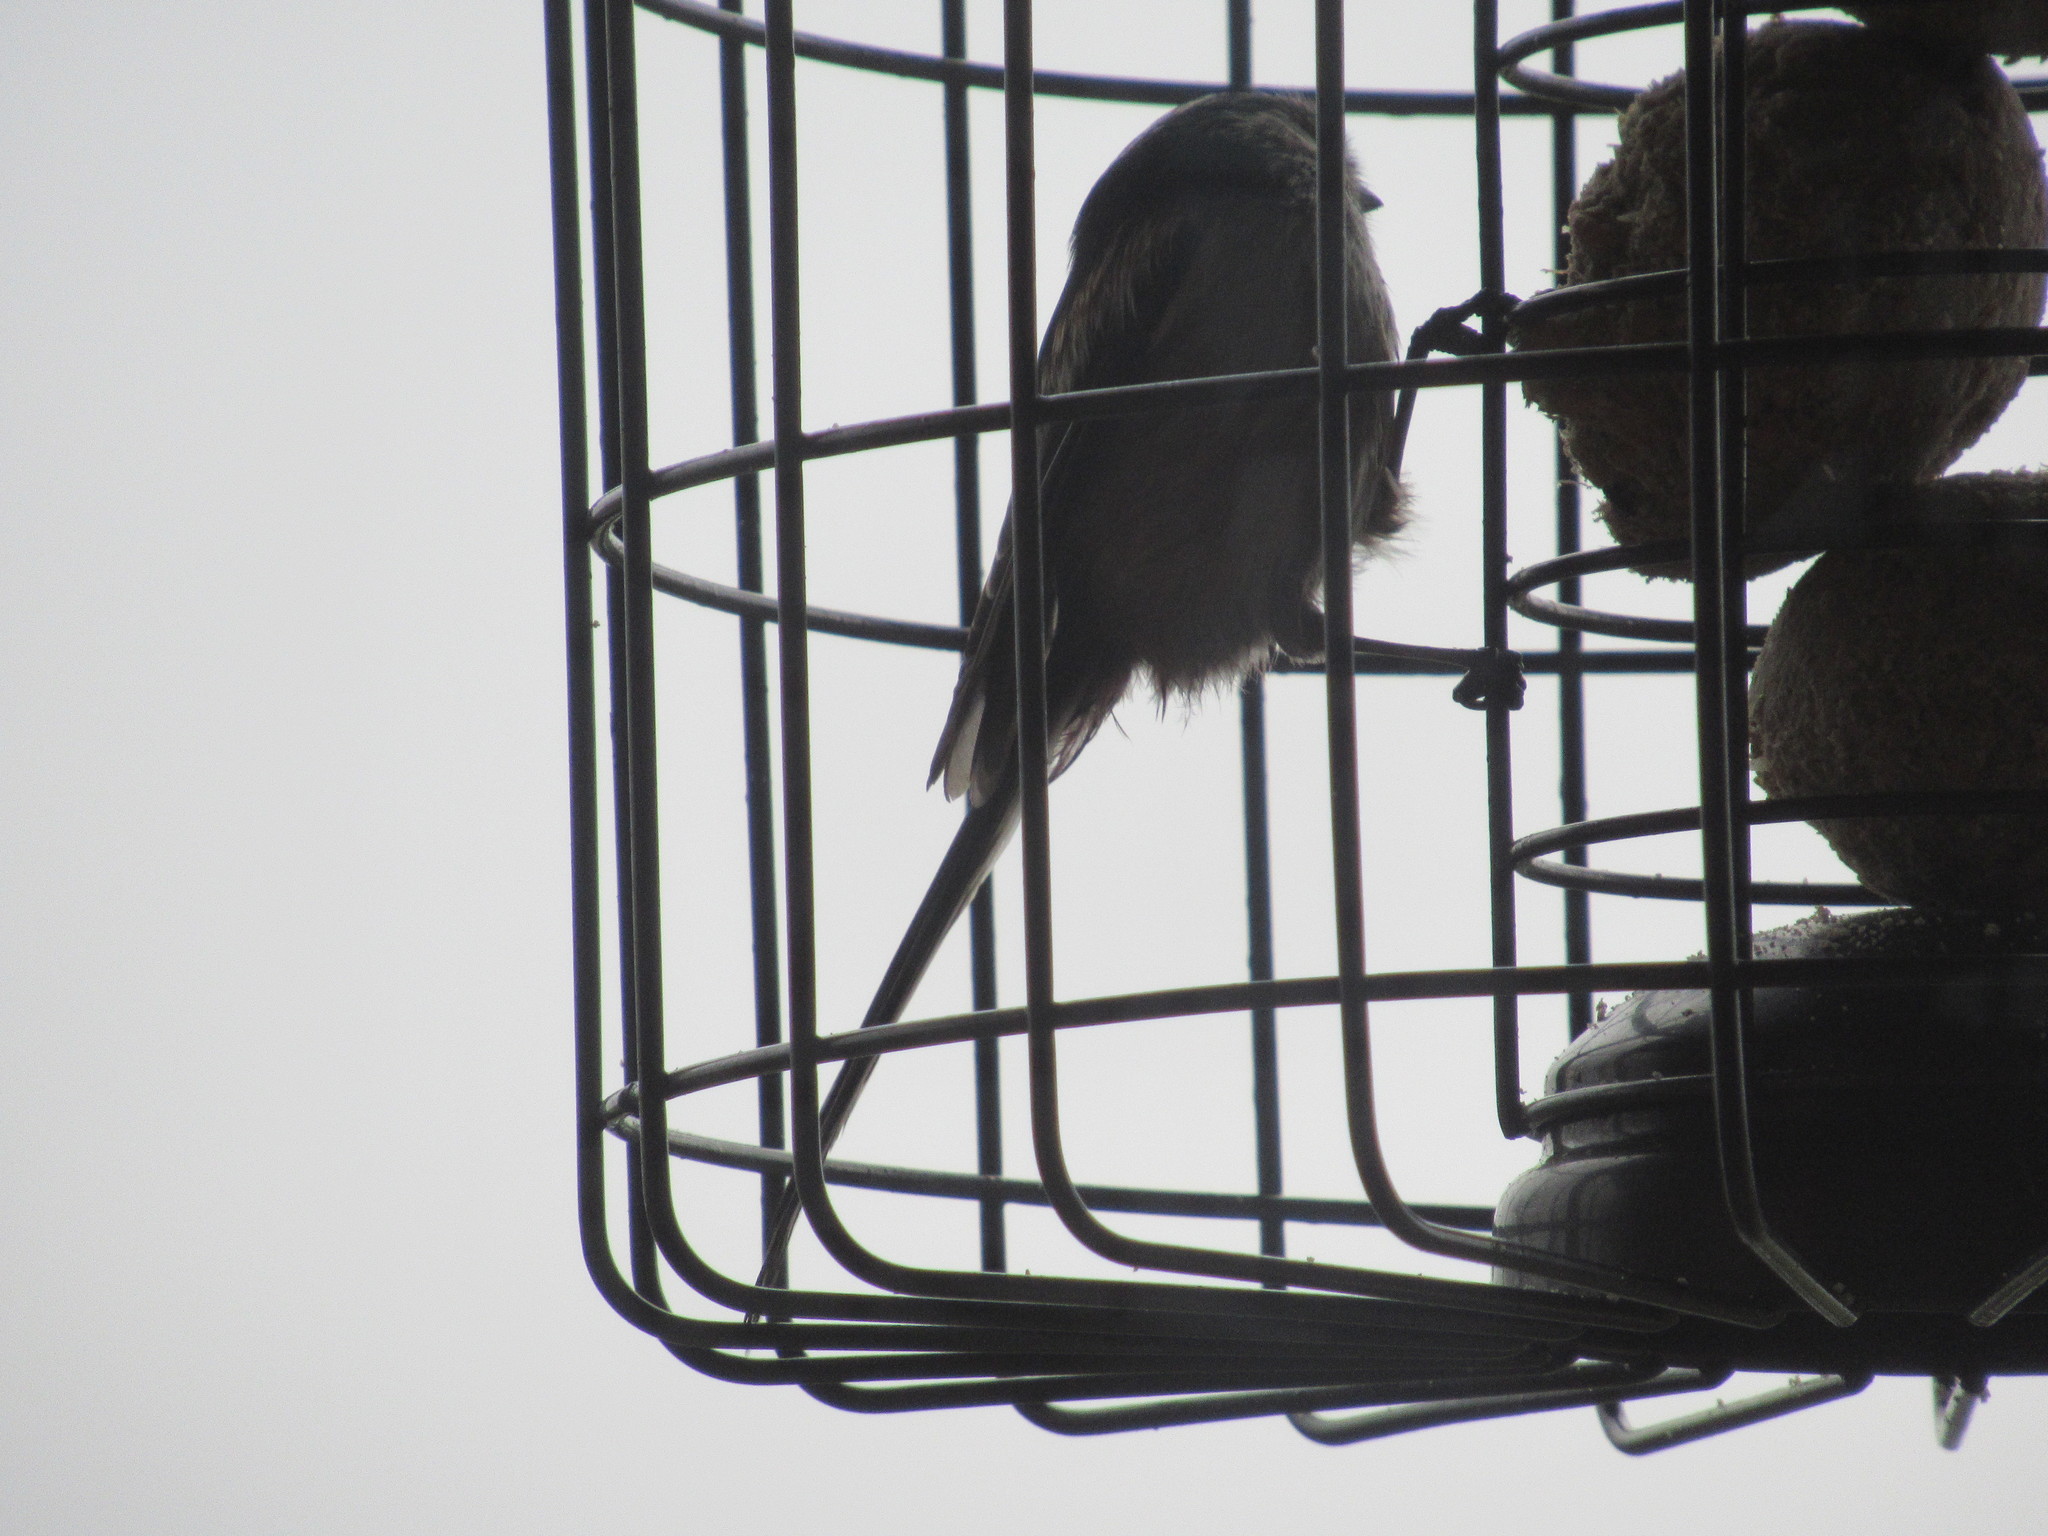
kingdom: Animalia
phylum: Chordata
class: Aves
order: Passeriformes
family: Aegithalidae
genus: Aegithalos
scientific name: Aegithalos caudatus
